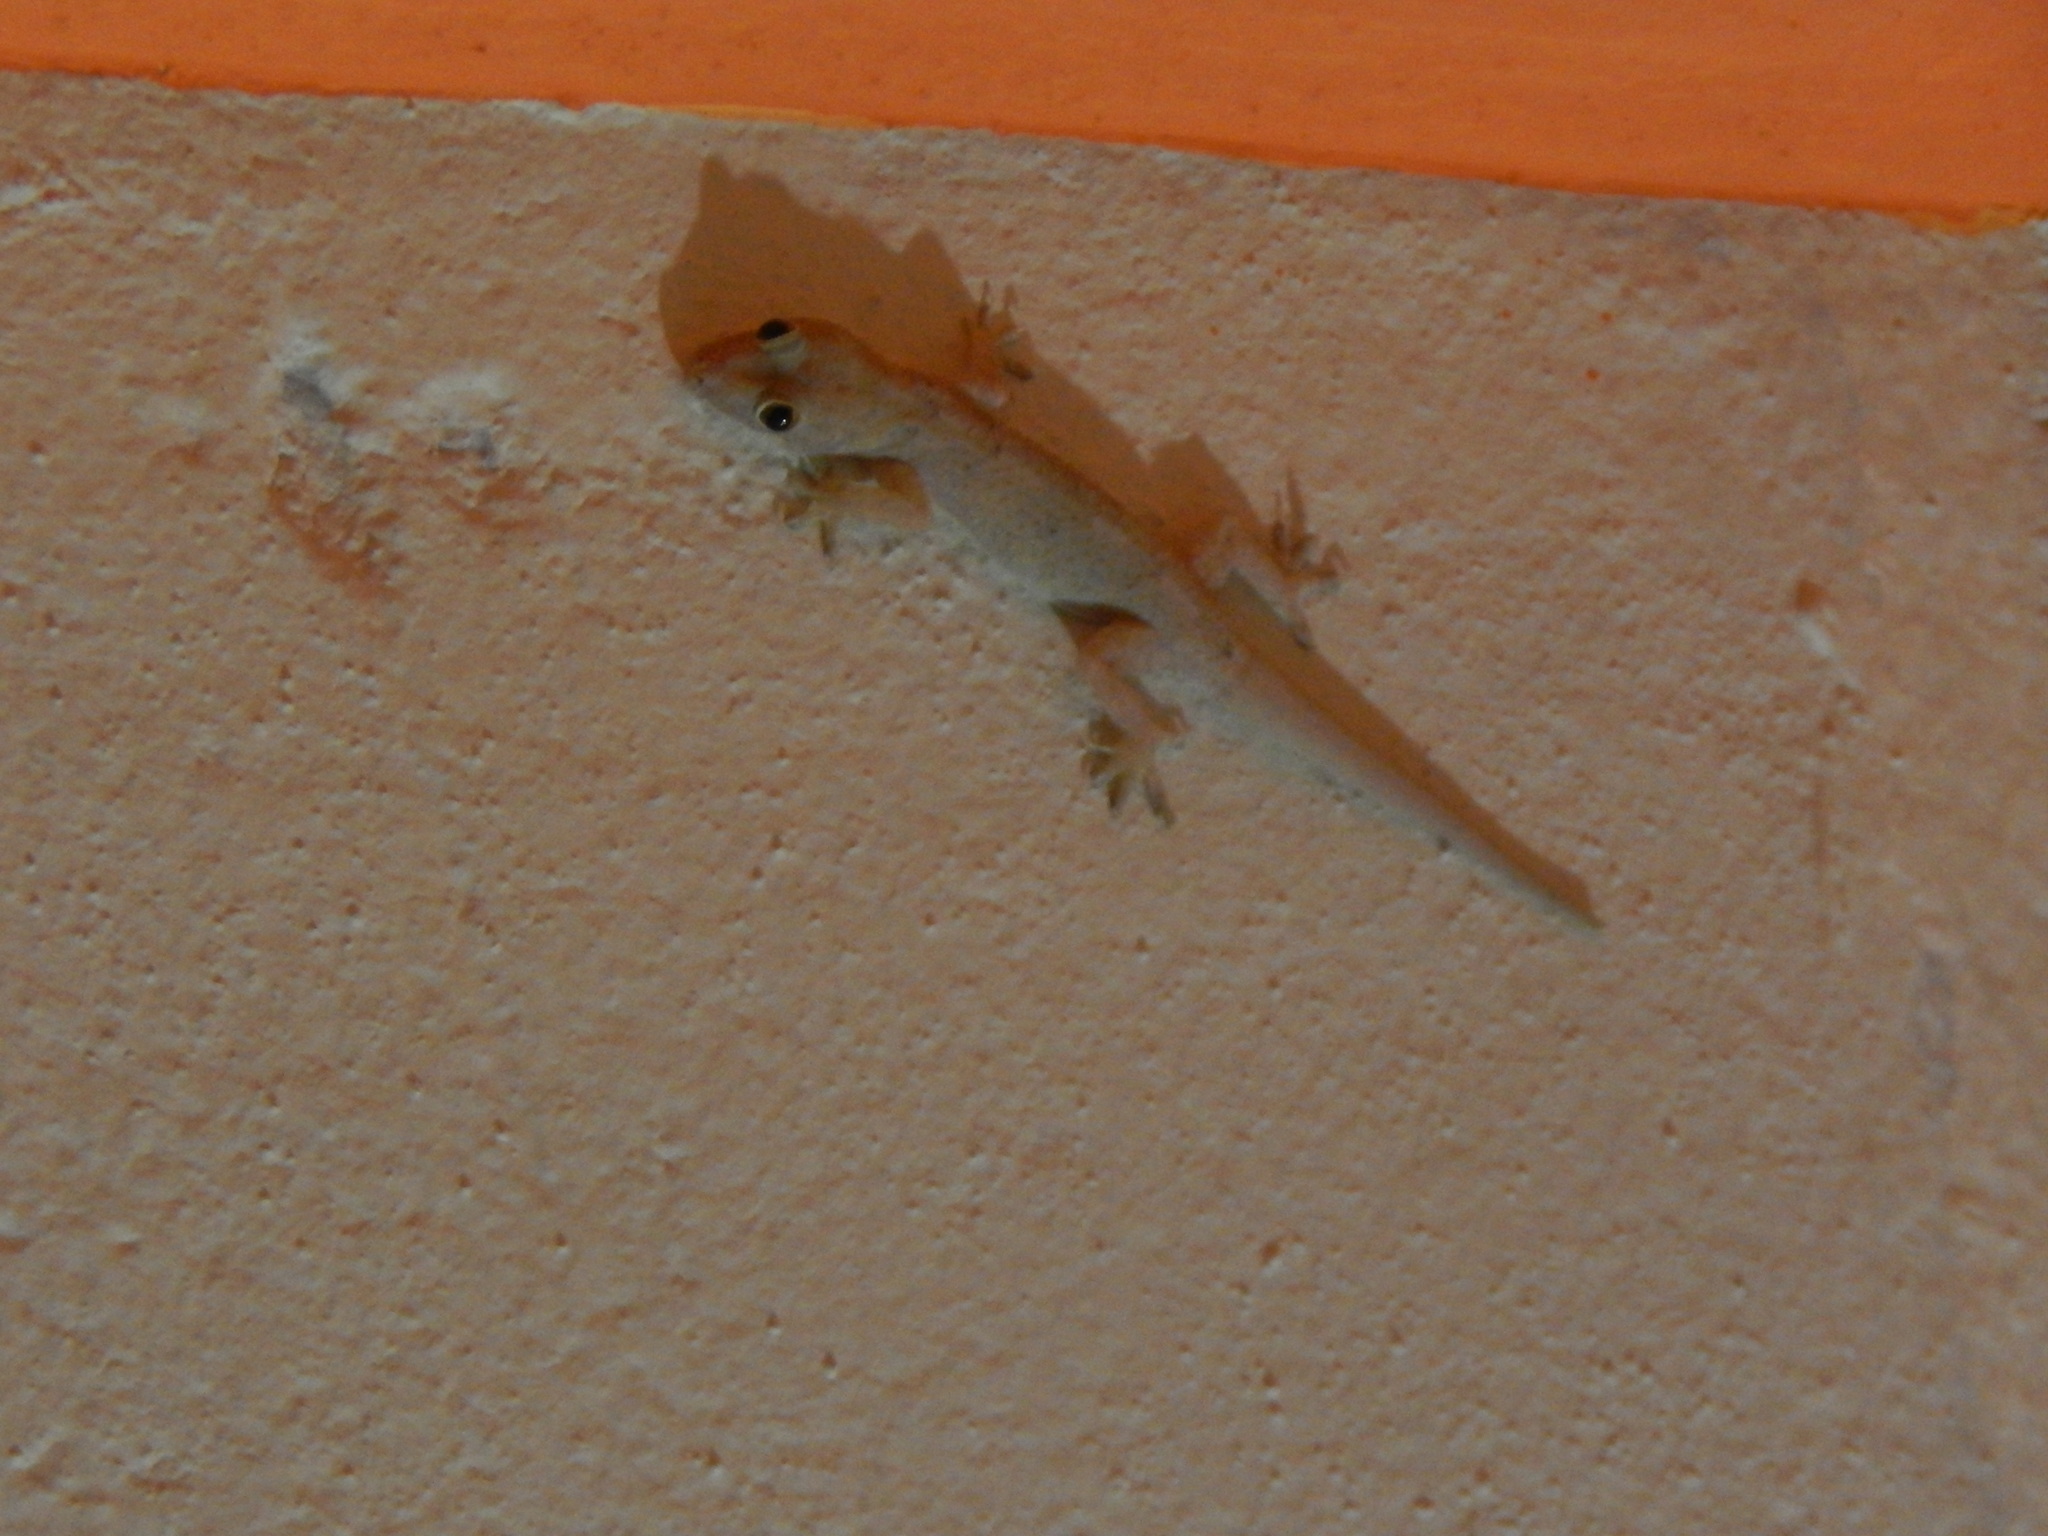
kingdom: Animalia
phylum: Chordata
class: Squamata
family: Gekkonidae
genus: Hemidactylus
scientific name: Hemidactylus mabouia
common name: House gecko
